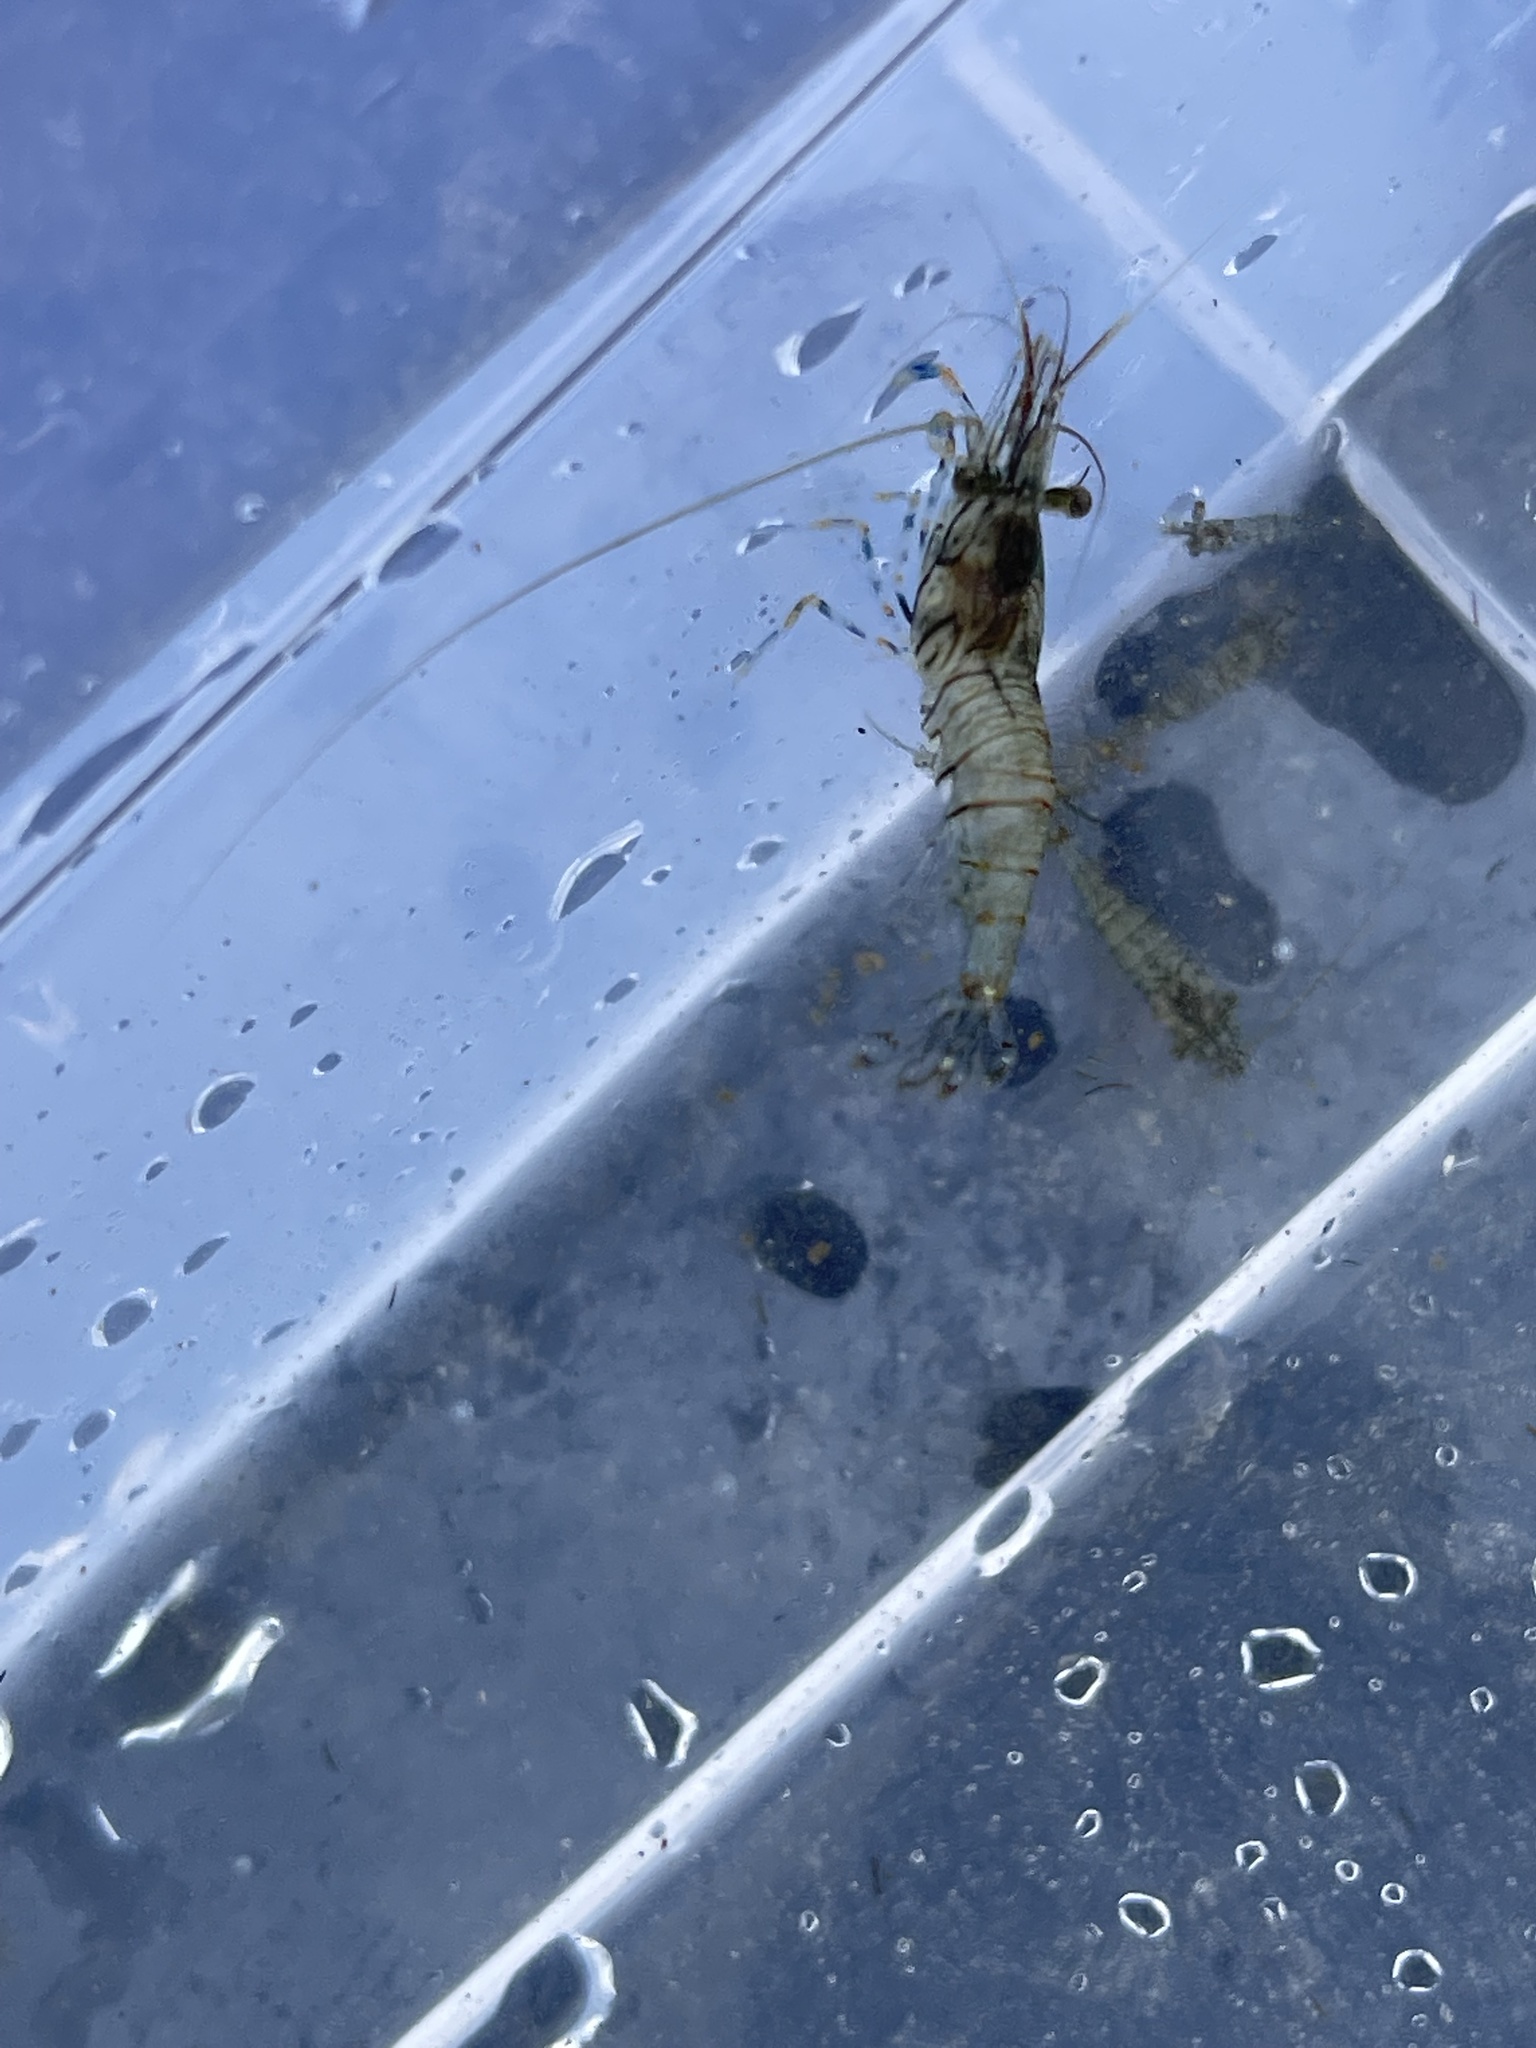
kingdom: Animalia
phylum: Arthropoda
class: Malacostraca
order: Decapoda
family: Palaemonidae
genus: Palaemon
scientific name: Palaemon elegans
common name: Grass prawm
